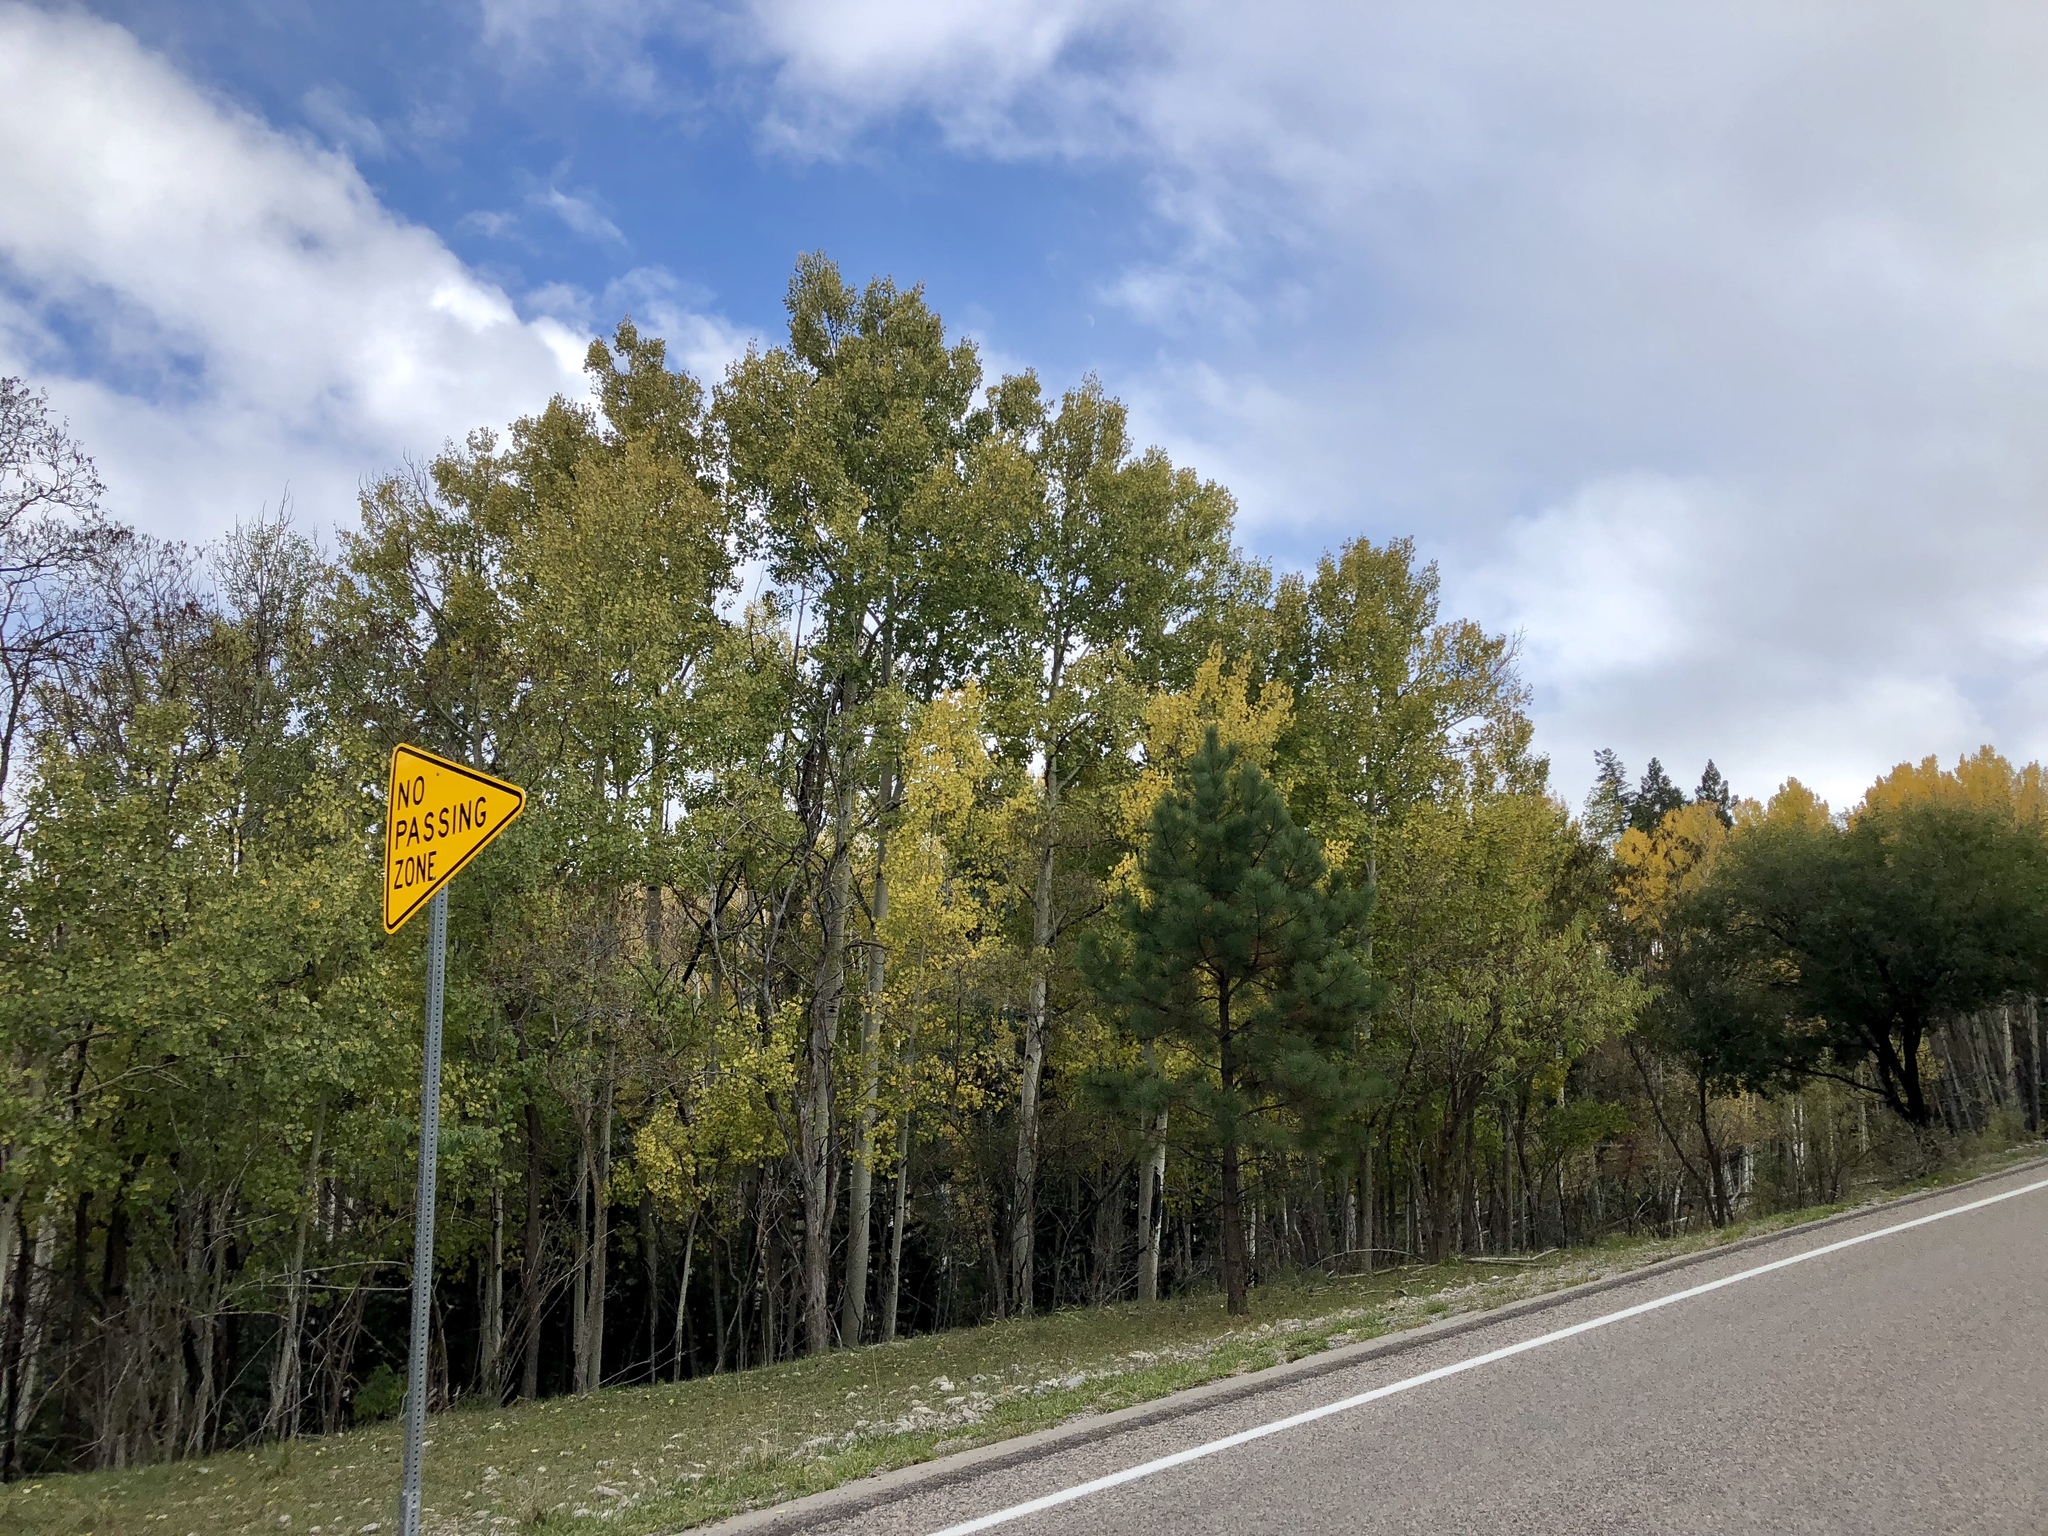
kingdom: Plantae
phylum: Tracheophyta
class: Magnoliopsida
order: Malpighiales
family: Salicaceae
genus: Populus
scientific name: Populus tremuloides
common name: Quaking aspen
